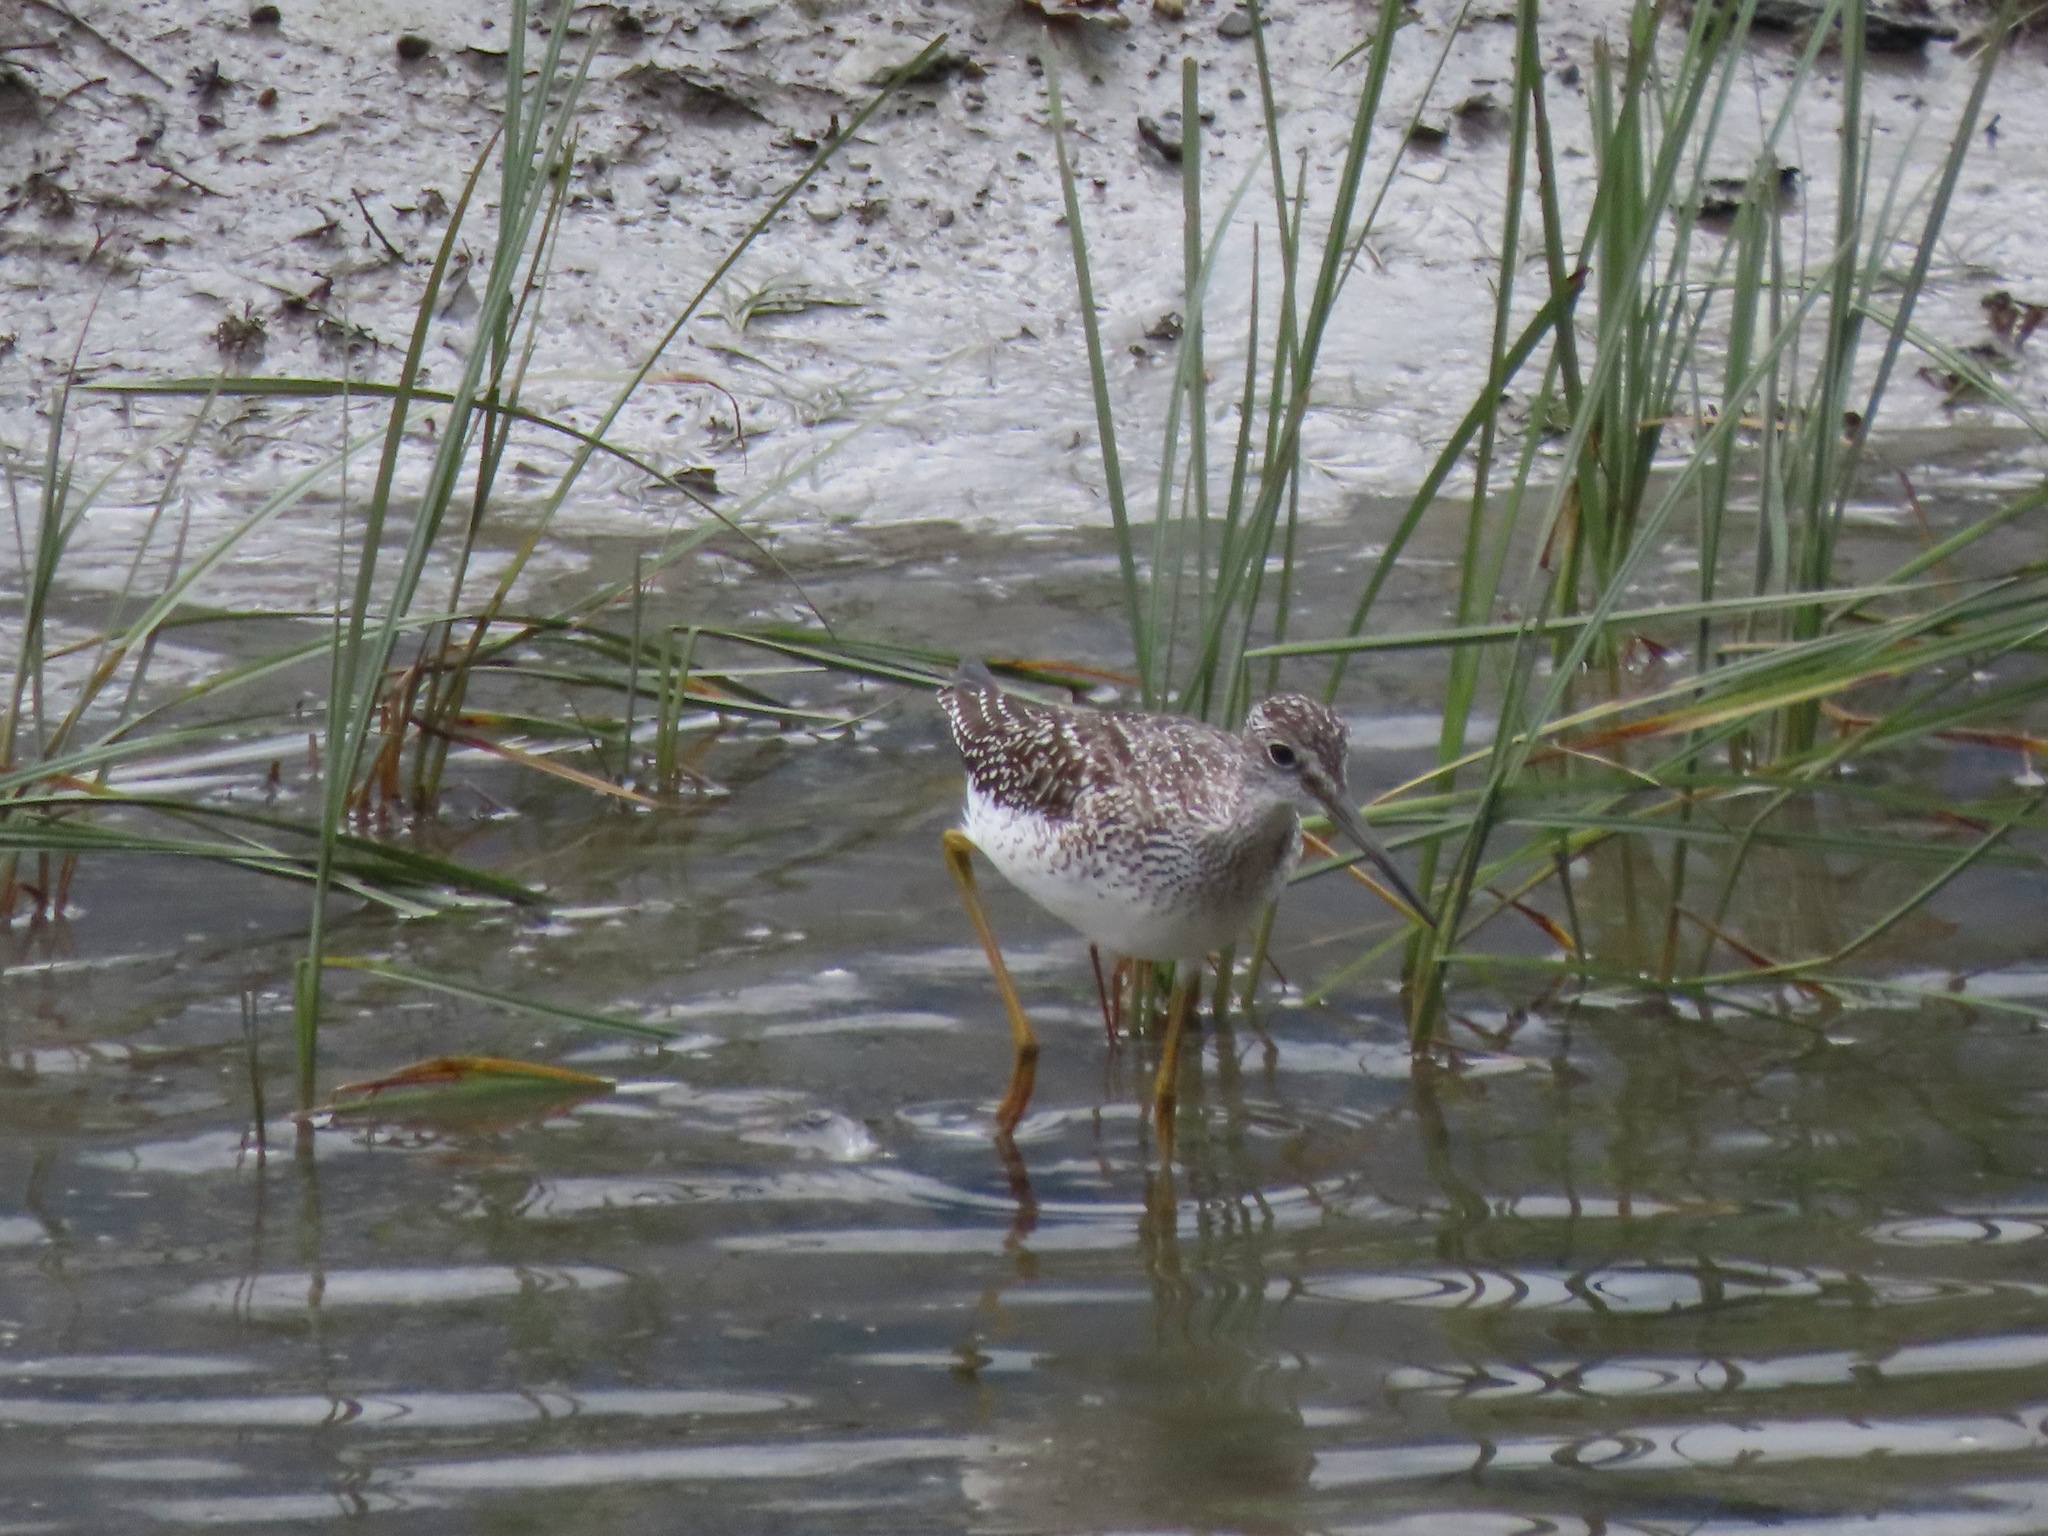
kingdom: Animalia
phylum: Chordata
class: Aves
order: Charadriiformes
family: Scolopacidae
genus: Tringa
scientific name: Tringa melanoleuca
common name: Greater yellowlegs
